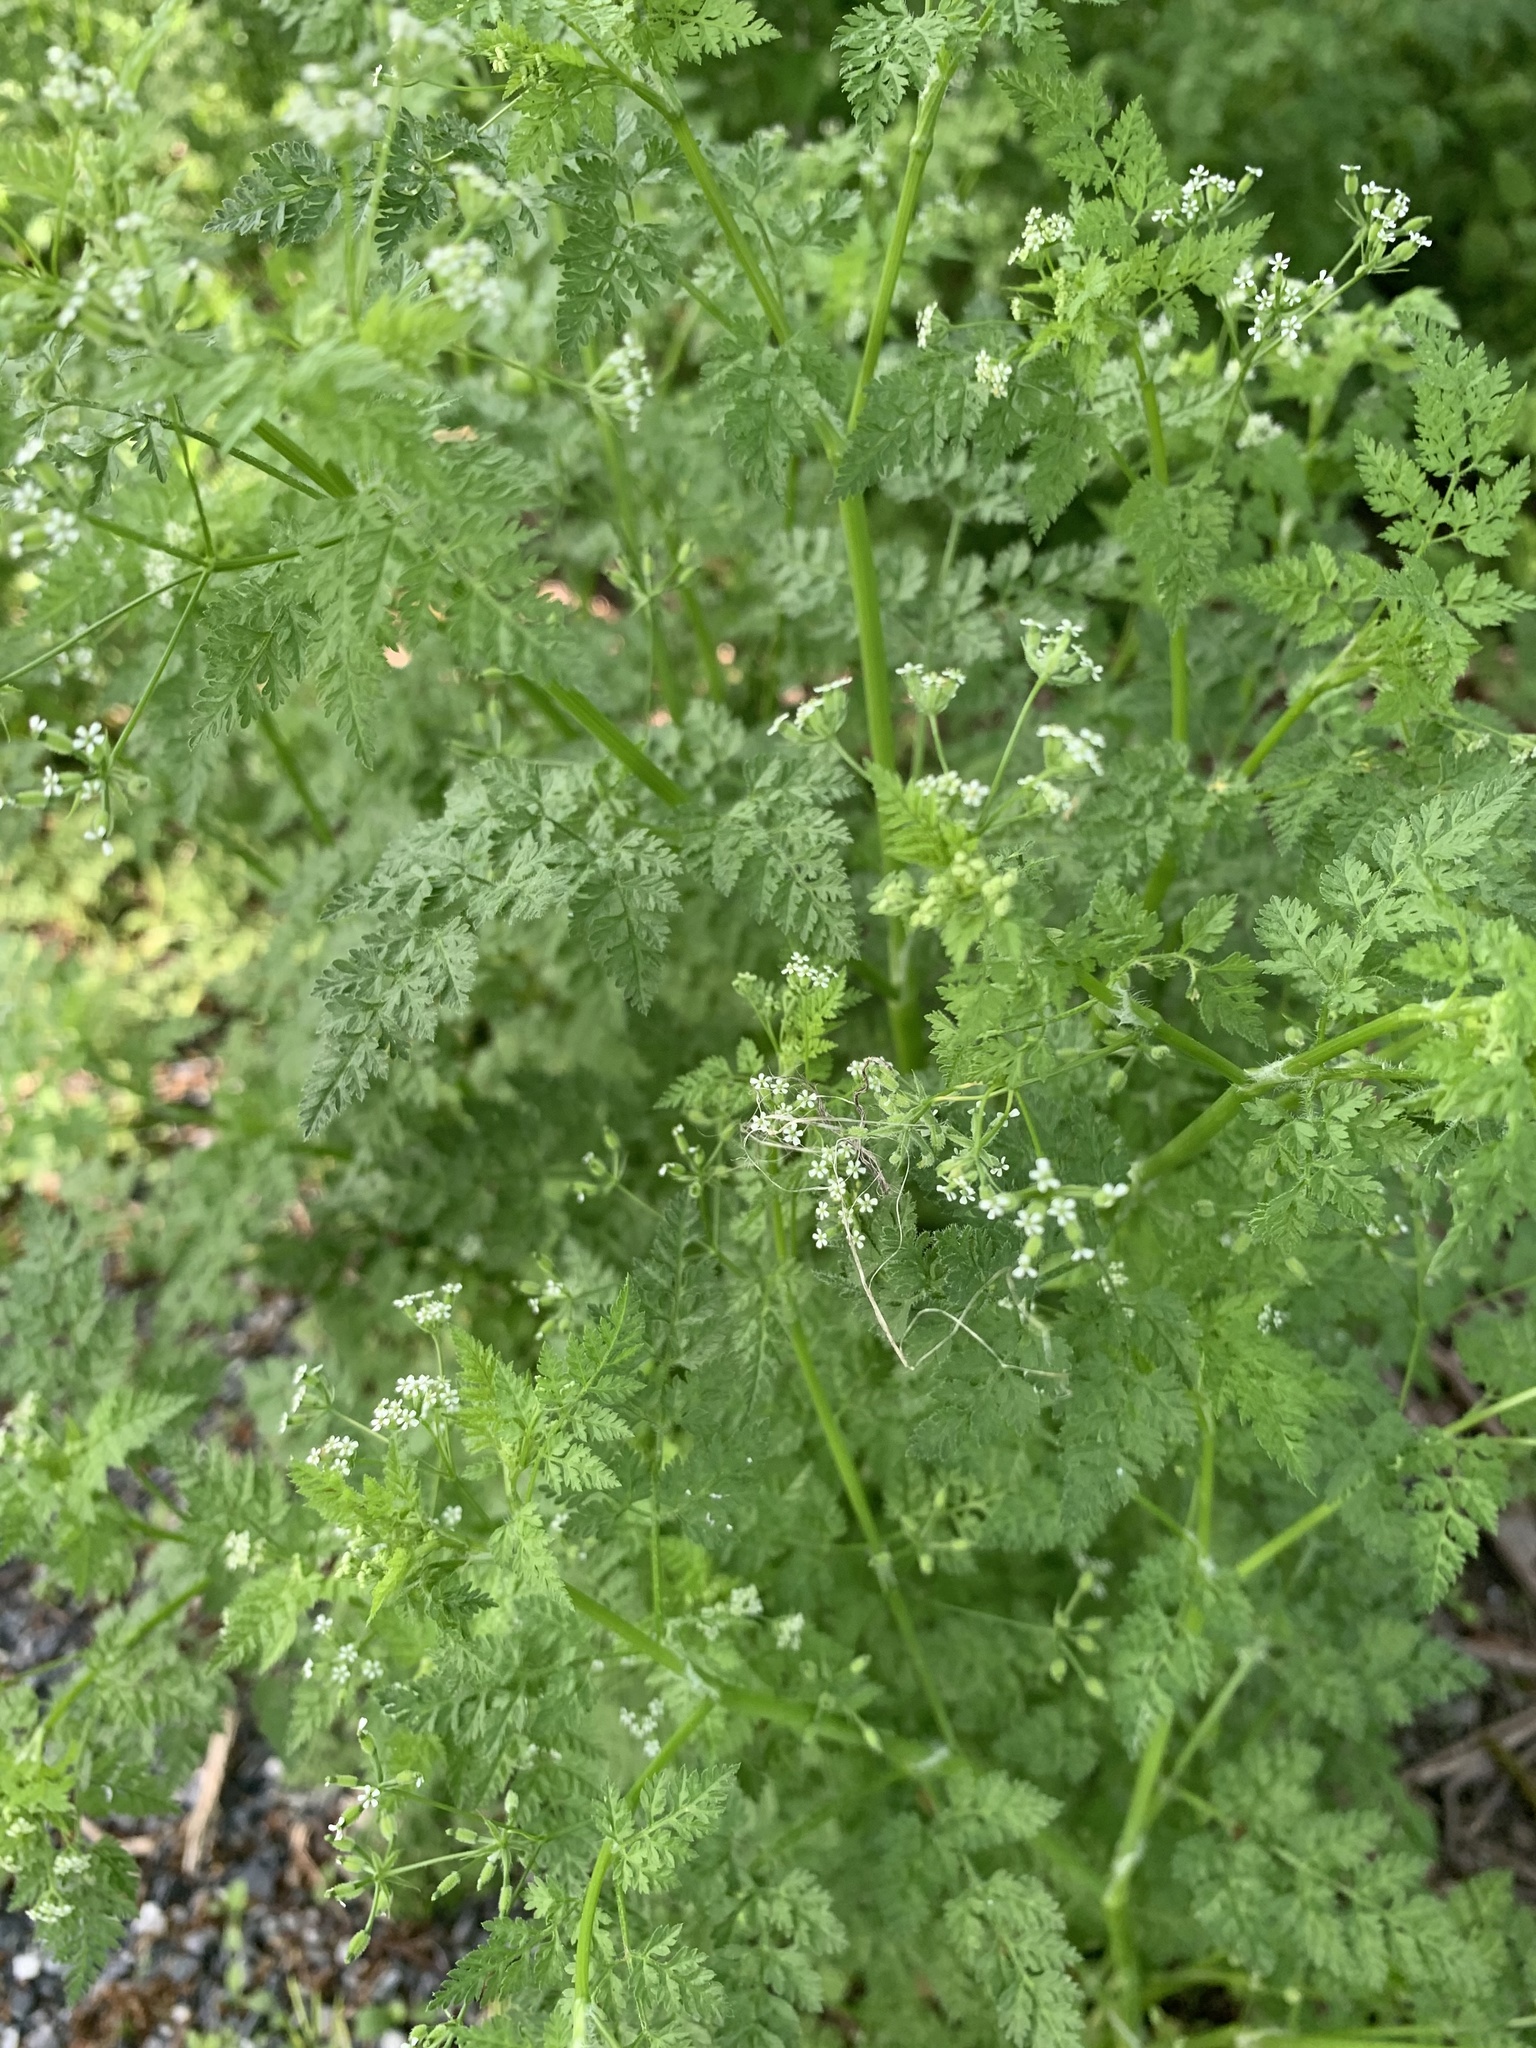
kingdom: Plantae
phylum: Tracheophyta
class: Magnoliopsida
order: Apiales
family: Apiaceae
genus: Anthriscus
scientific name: Anthriscus caucalis
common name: Bur chervil
